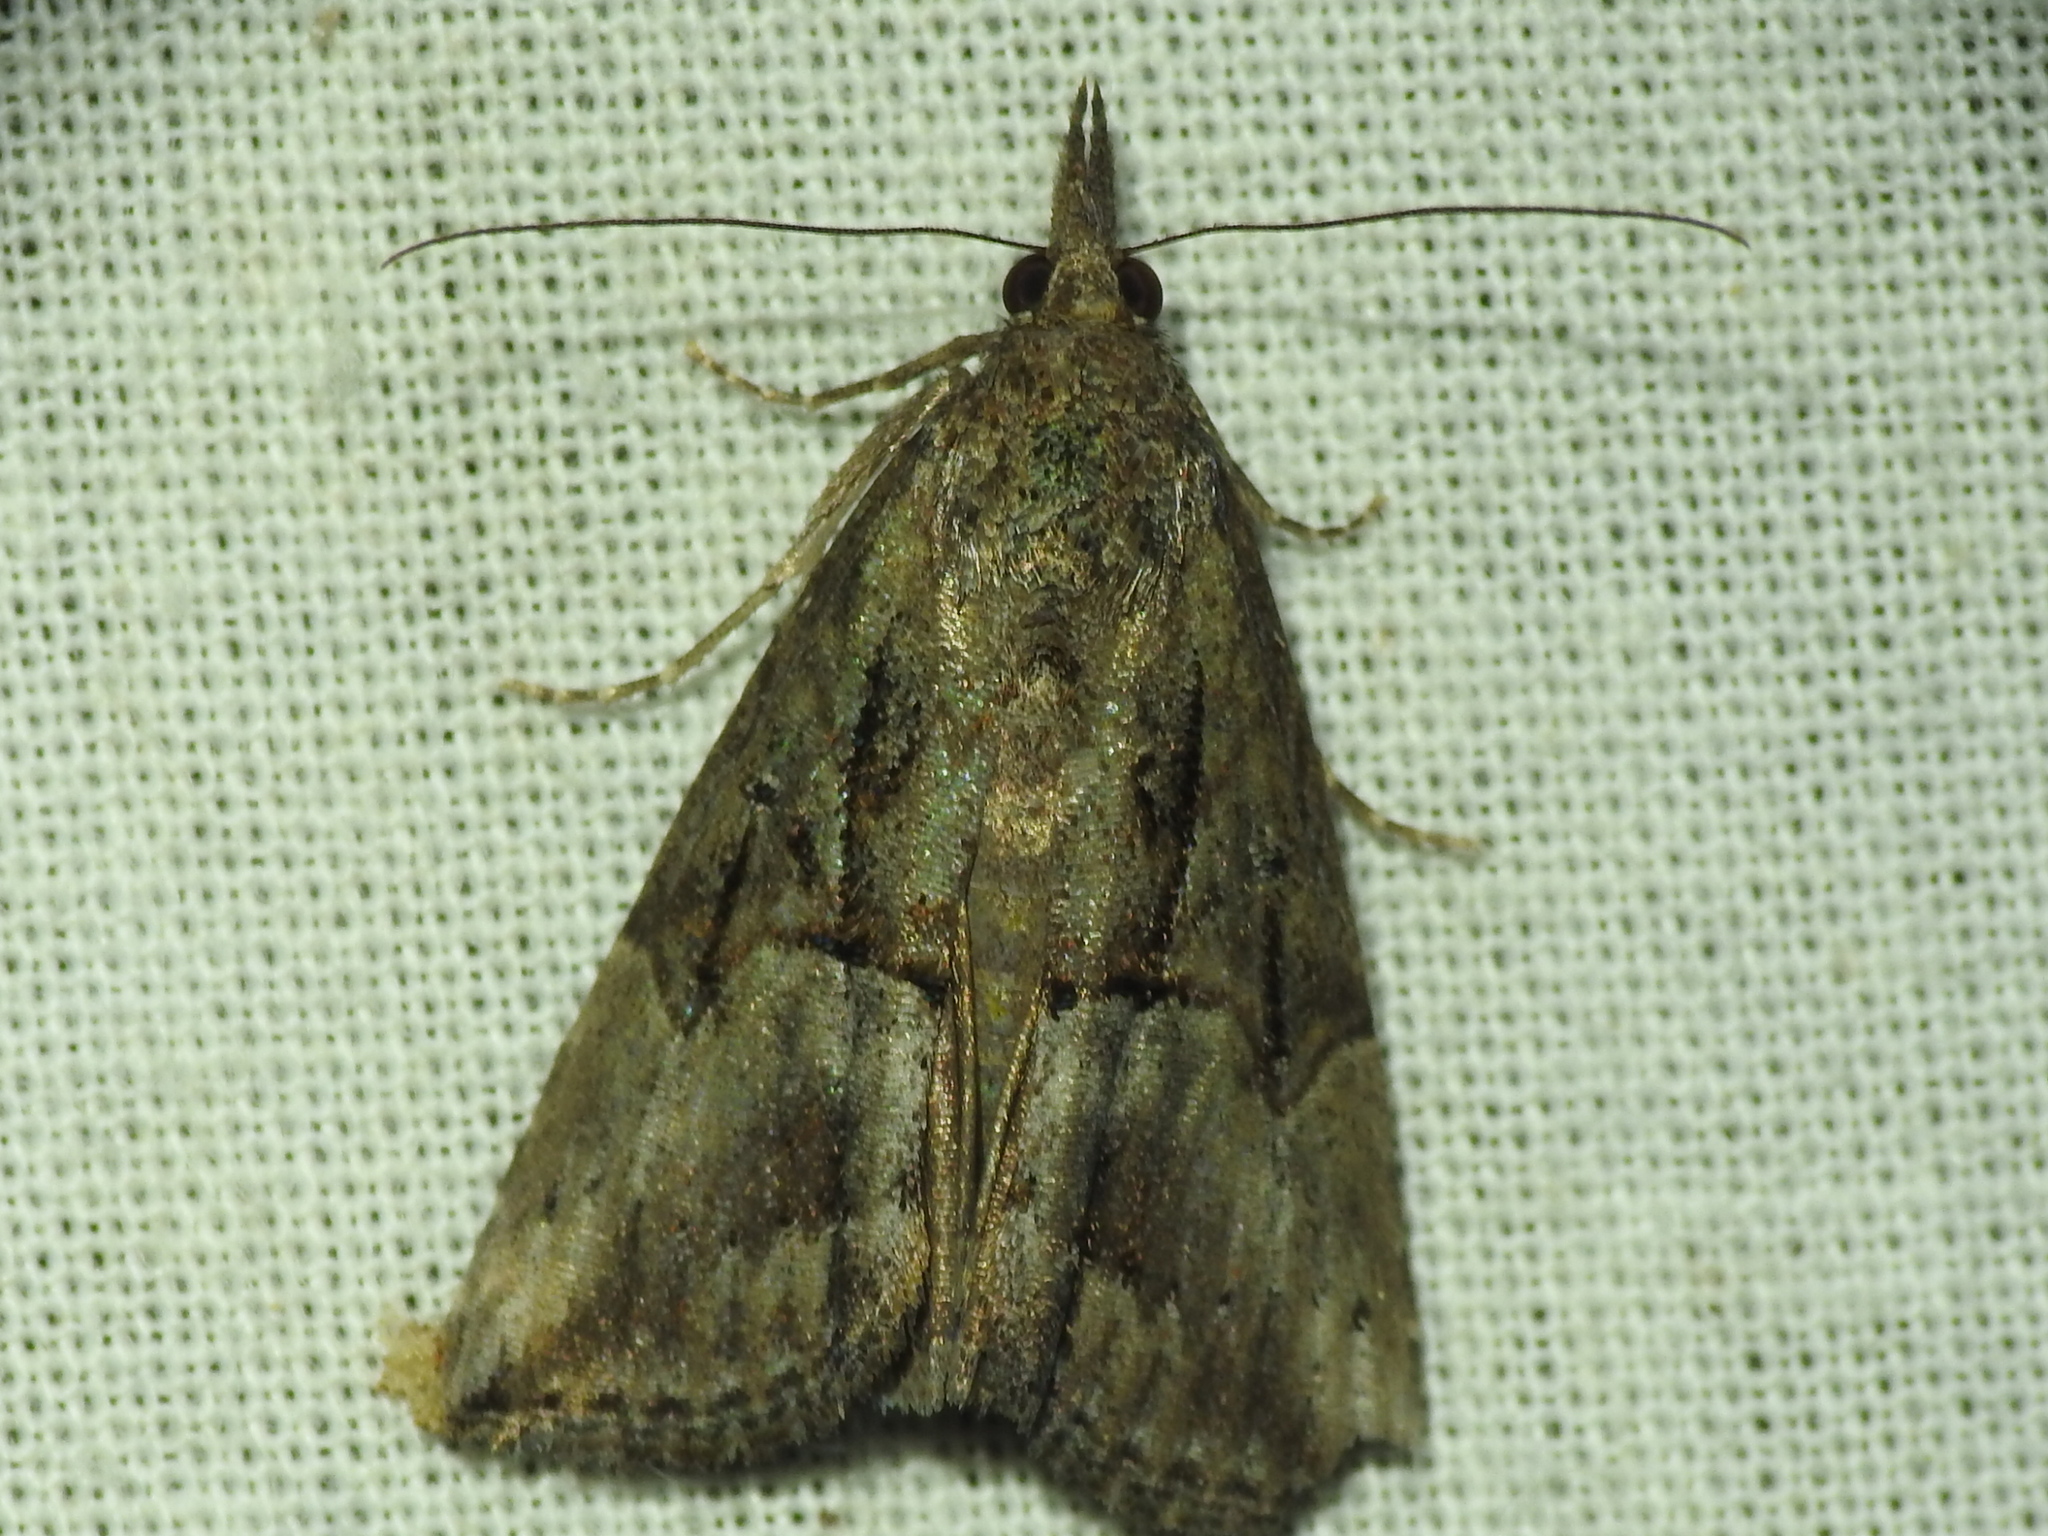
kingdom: Animalia
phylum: Arthropoda
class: Insecta
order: Lepidoptera
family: Erebidae
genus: Hypena
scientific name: Hypena scabra
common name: Green cloverworm
